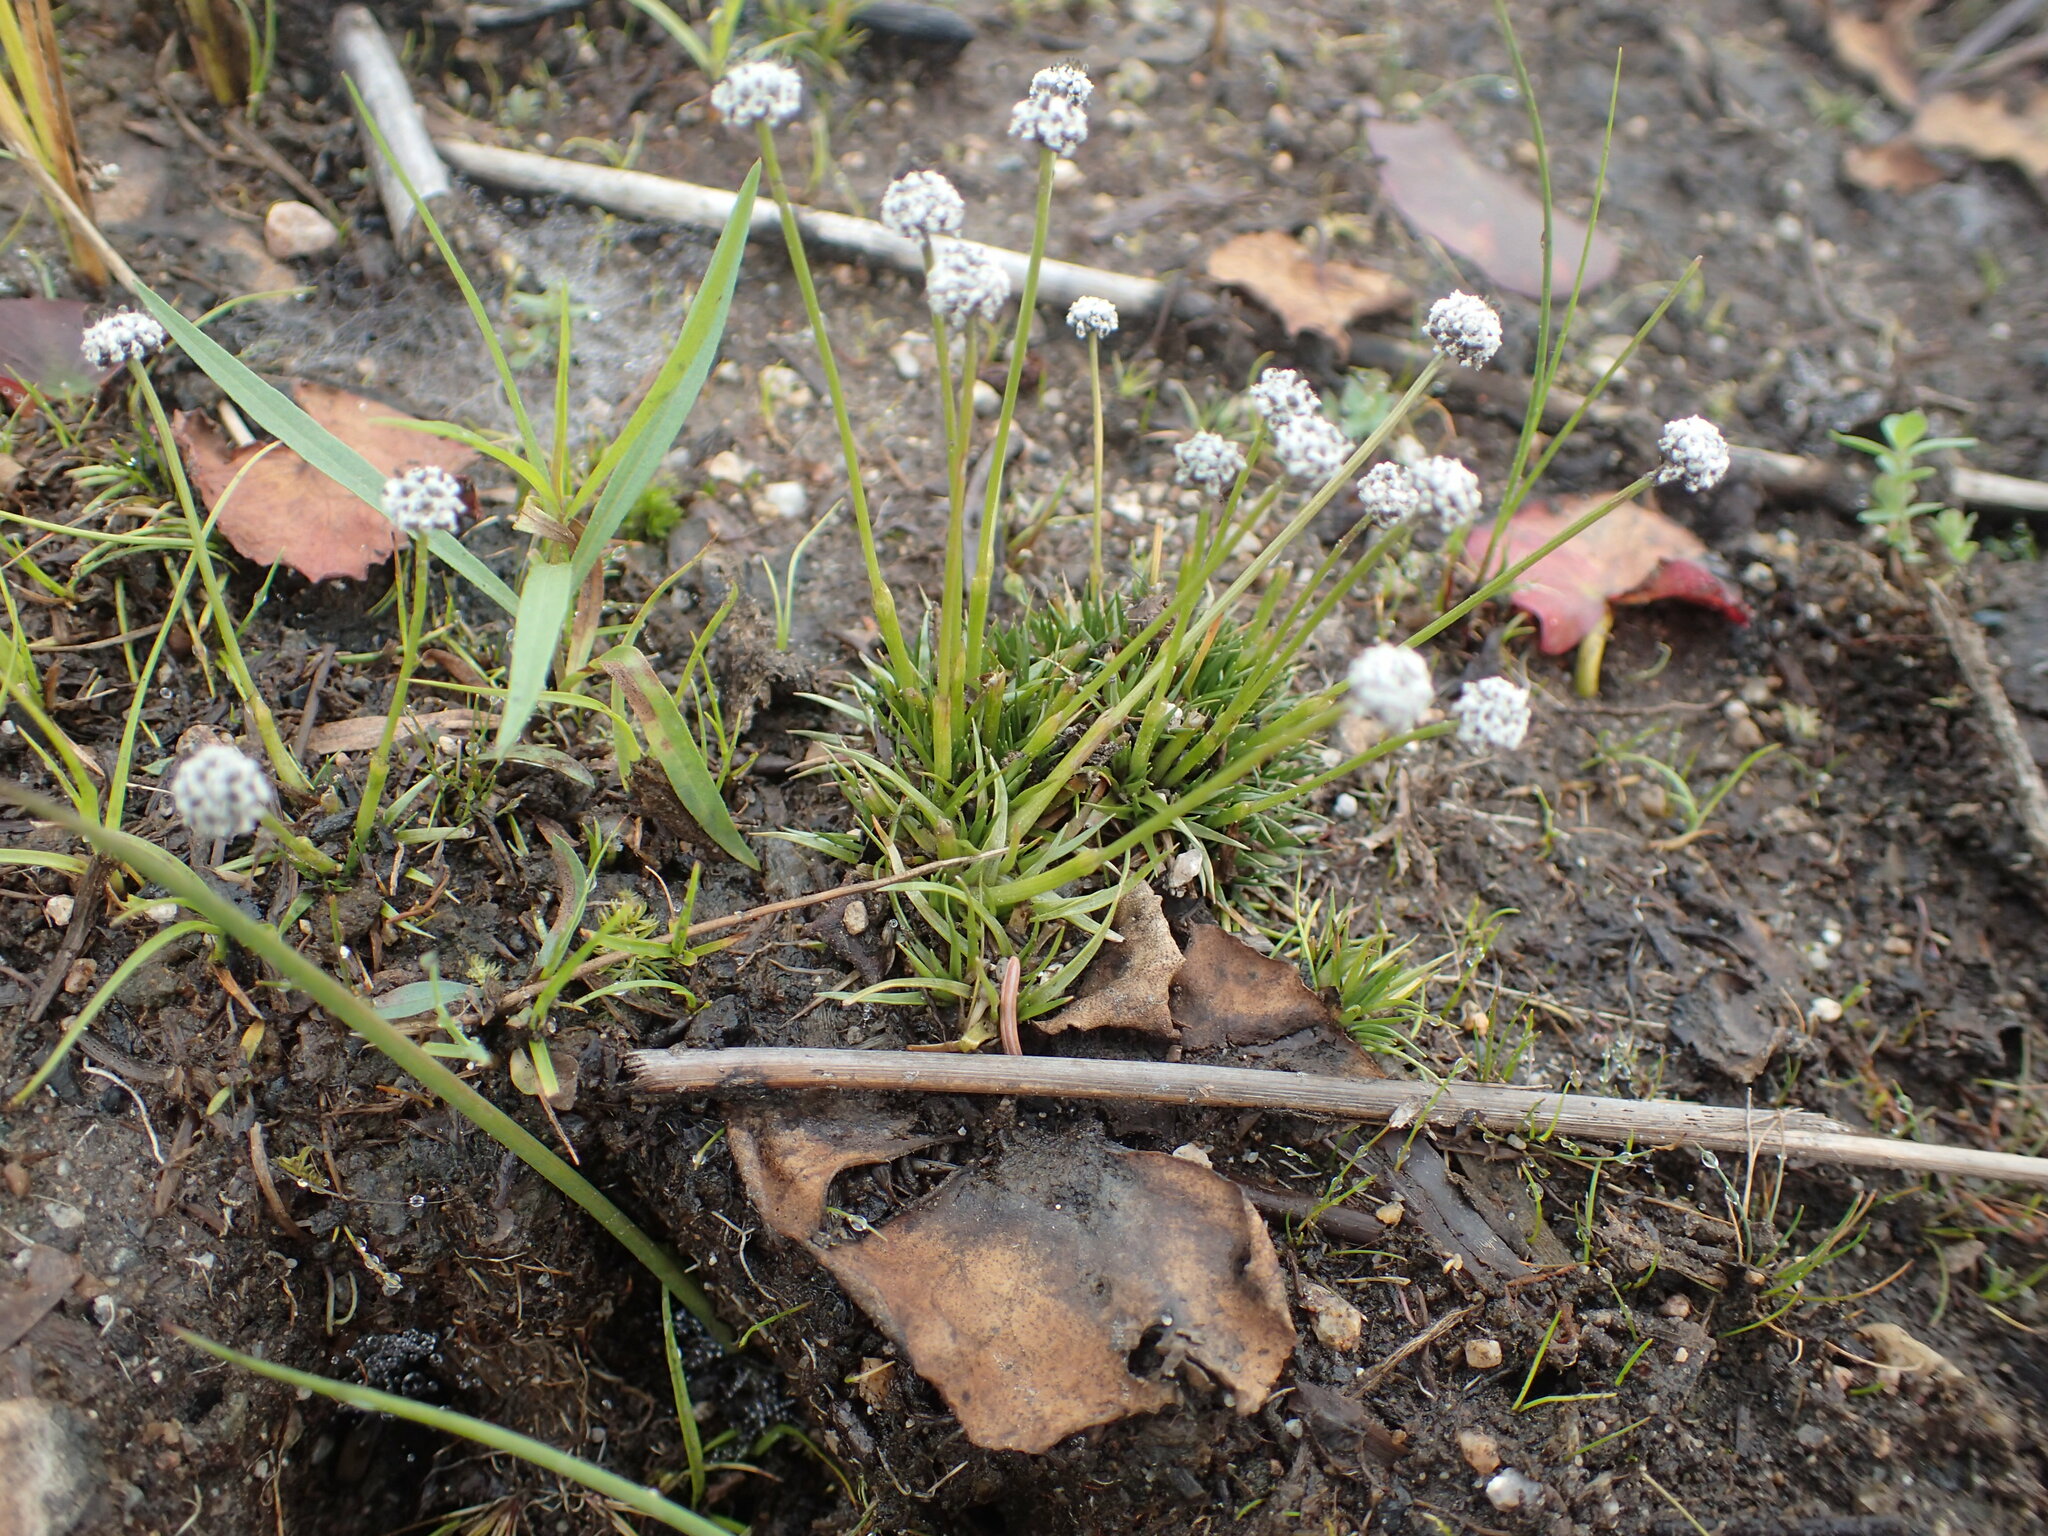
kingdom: Plantae
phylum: Tracheophyta
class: Liliopsida
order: Poales
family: Eriocaulaceae
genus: Eriocaulon
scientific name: Eriocaulon aquaticum
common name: Pipewort
